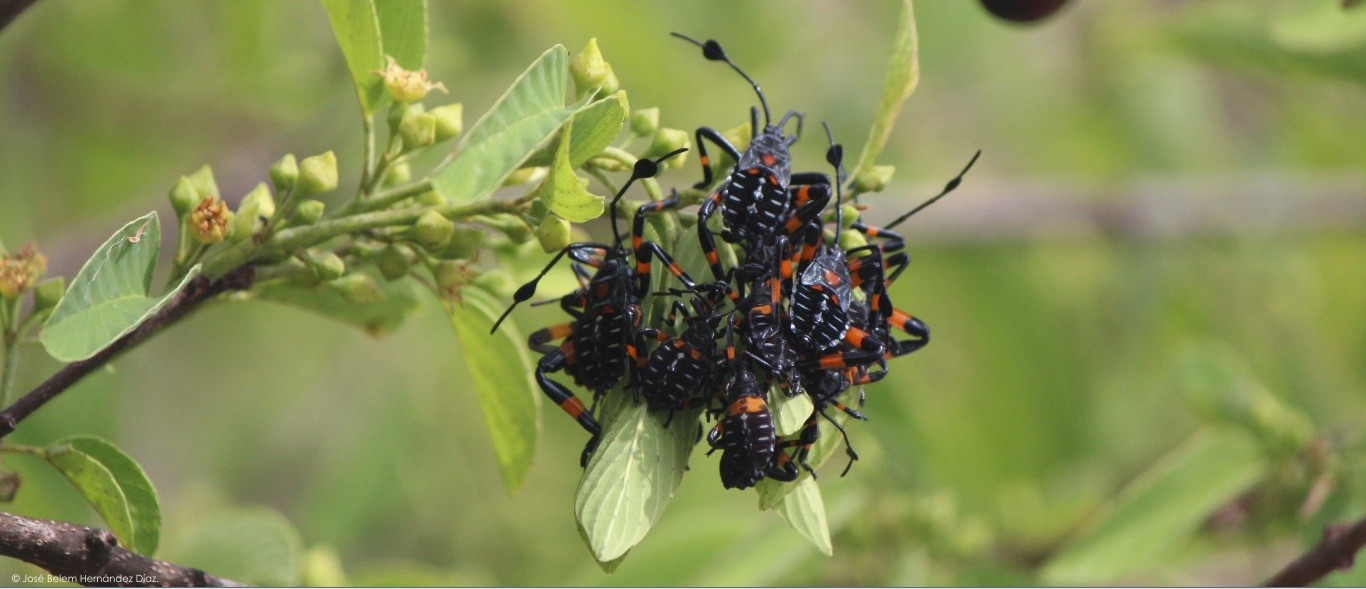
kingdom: Animalia
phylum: Arthropoda
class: Insecta
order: Hemiptera
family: Coreidae
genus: Thasus
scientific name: Thasus
